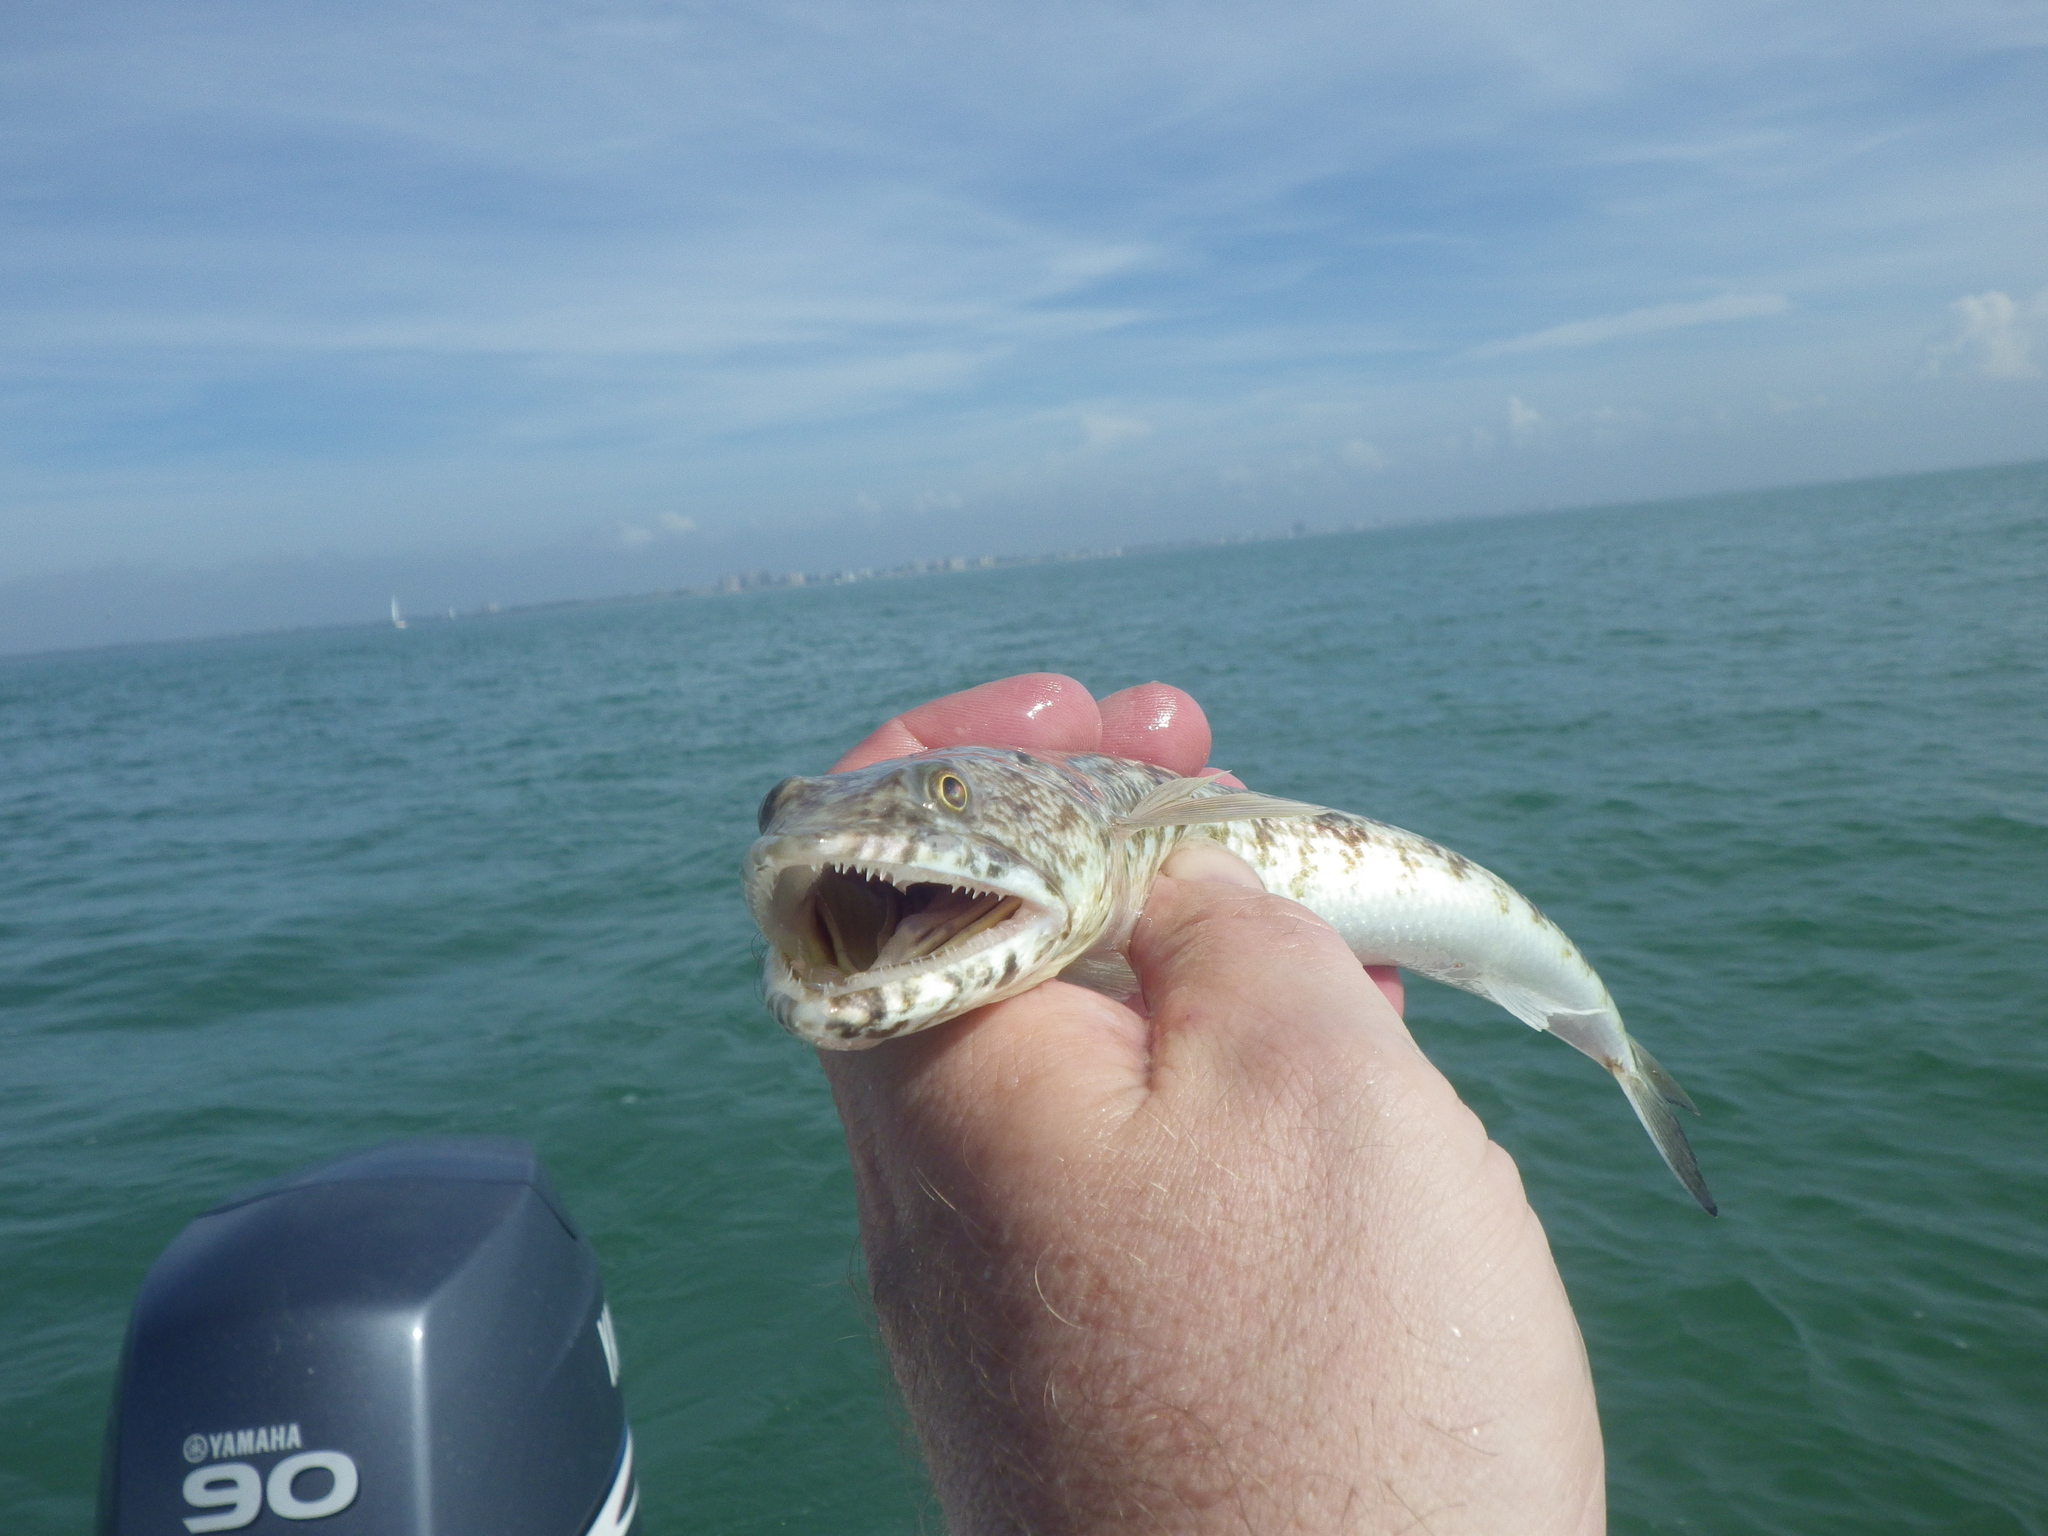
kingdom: Animalia
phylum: Chordata
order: Aulopiformes
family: Synodontidae
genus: Synodus
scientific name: Synodus foetens
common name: Inshore lizardfish
